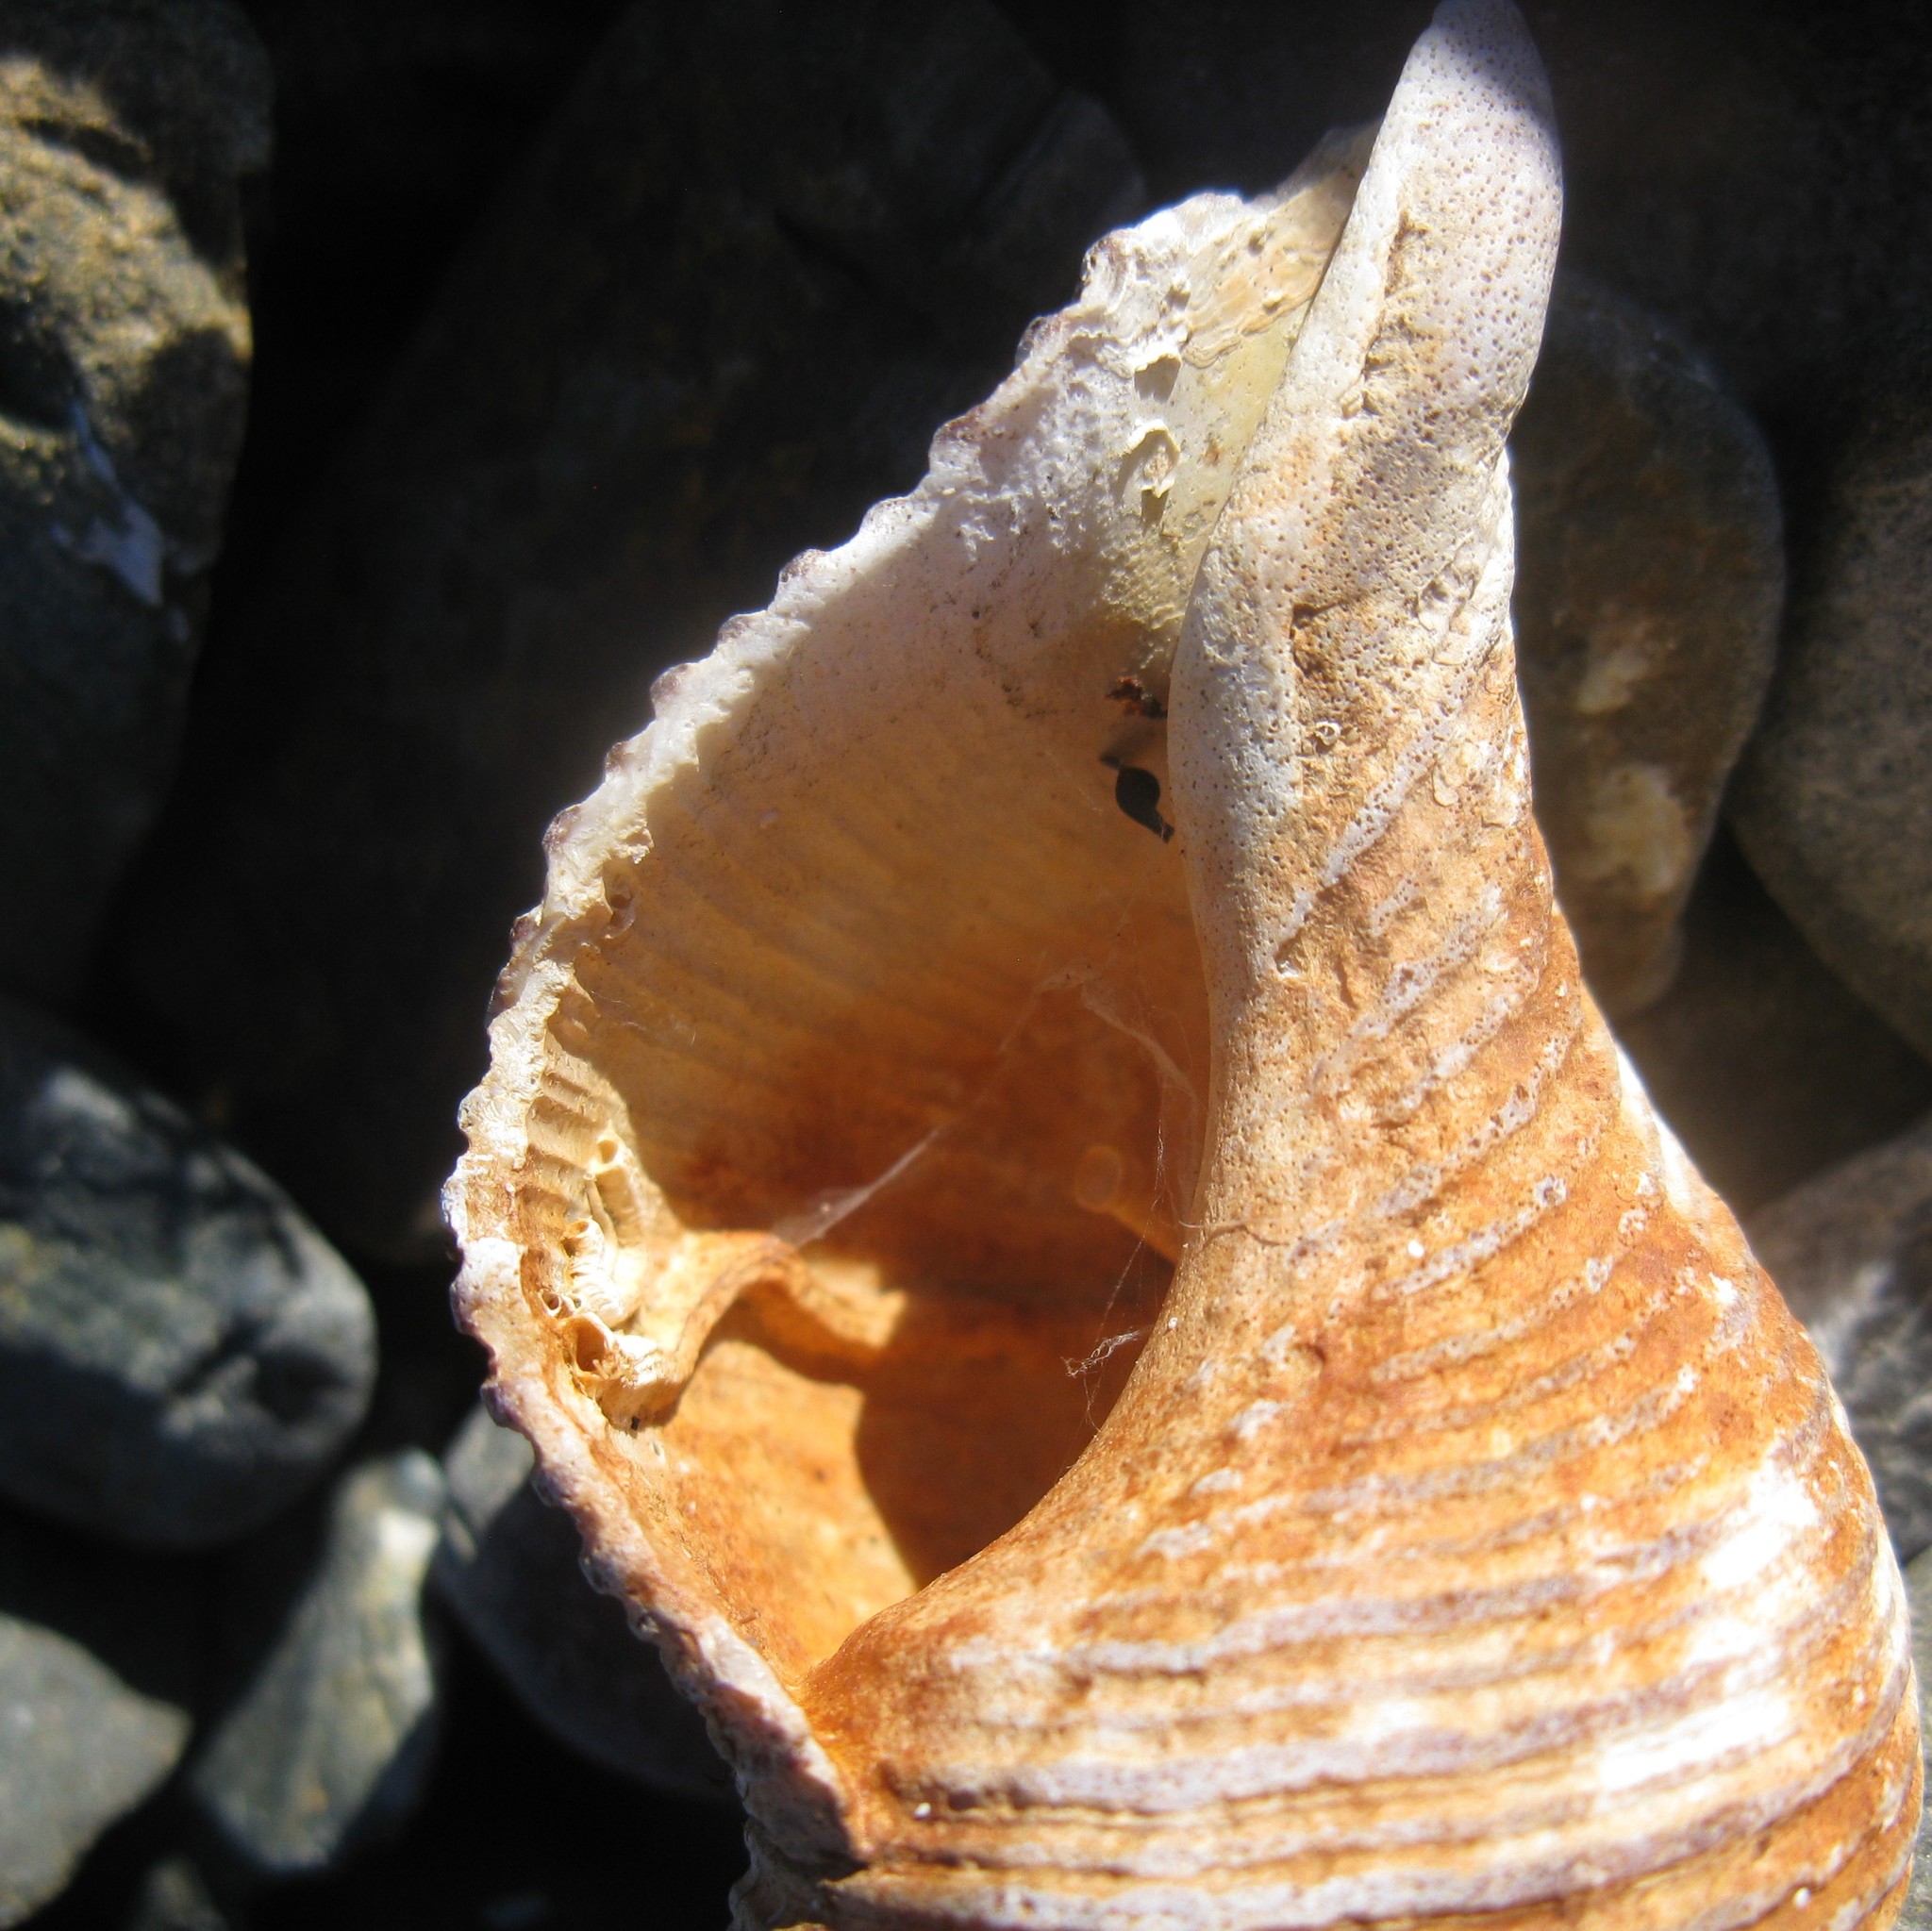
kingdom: Animalia
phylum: Mollusca
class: Gastropoda
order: Neogastropoda
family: Austrosiphonidae
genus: Penion
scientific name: Penion sulcatus
